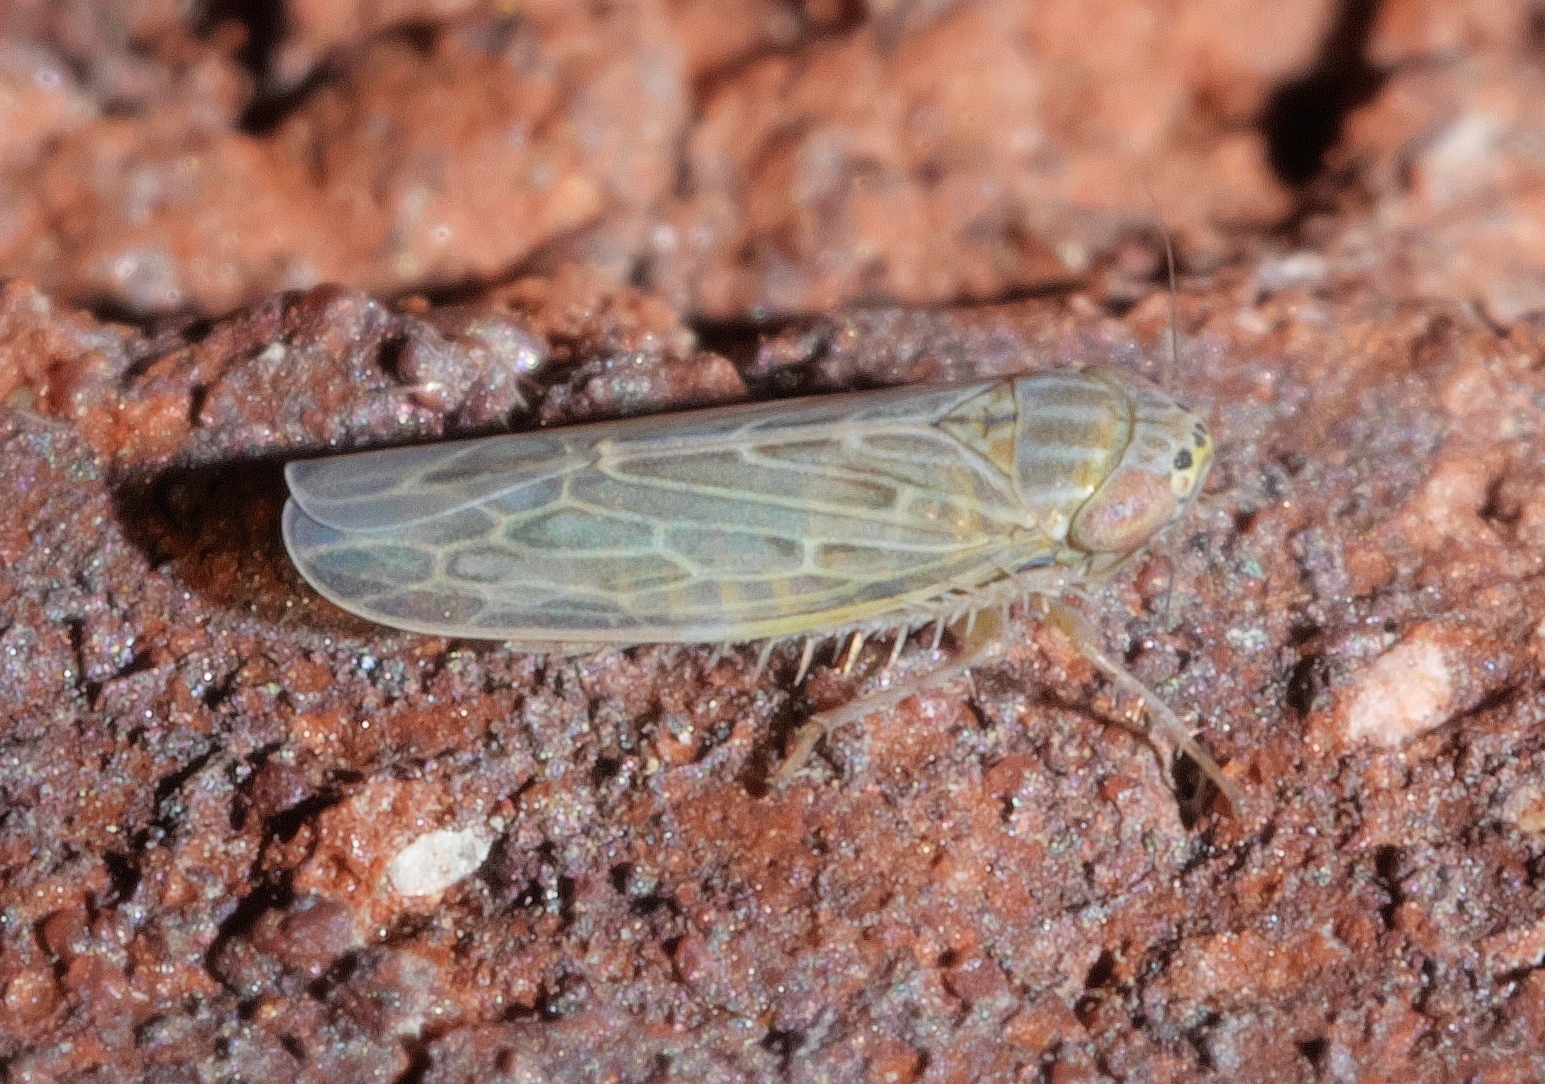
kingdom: Animalia
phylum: Arthropoda
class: Insecta
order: Hemiptera
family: Cicadellidae
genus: Graminella
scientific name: Graminella sonora
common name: Lesser lawn leafhopper
